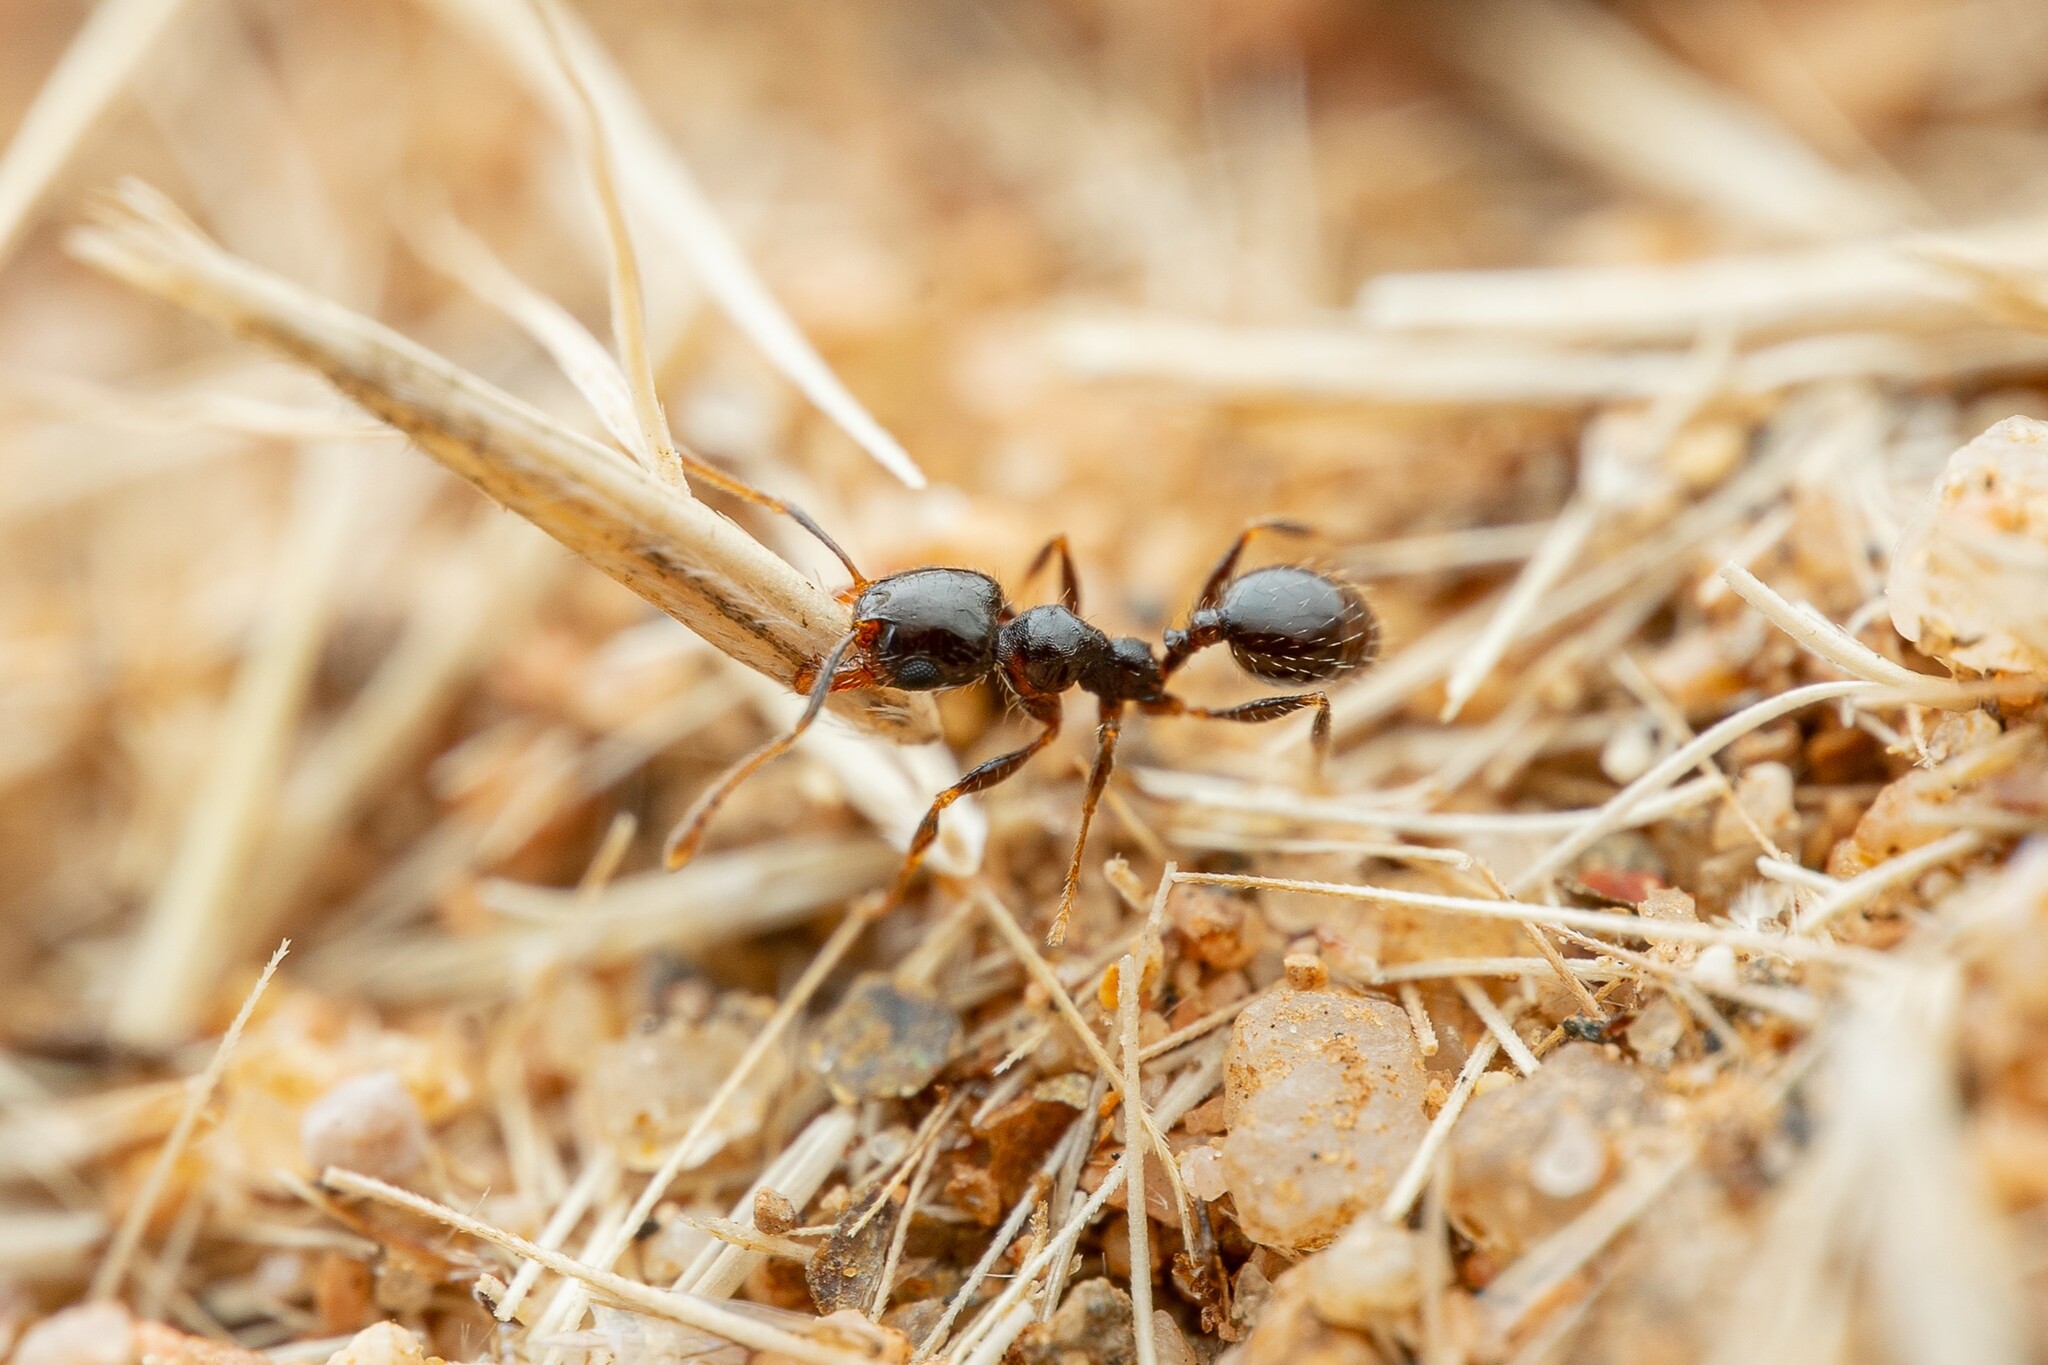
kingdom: Animalia
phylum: Arthropoda
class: Insecta
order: Hymenoptera
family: Formicidae
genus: Pheidole
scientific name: Pheidole xerophila
